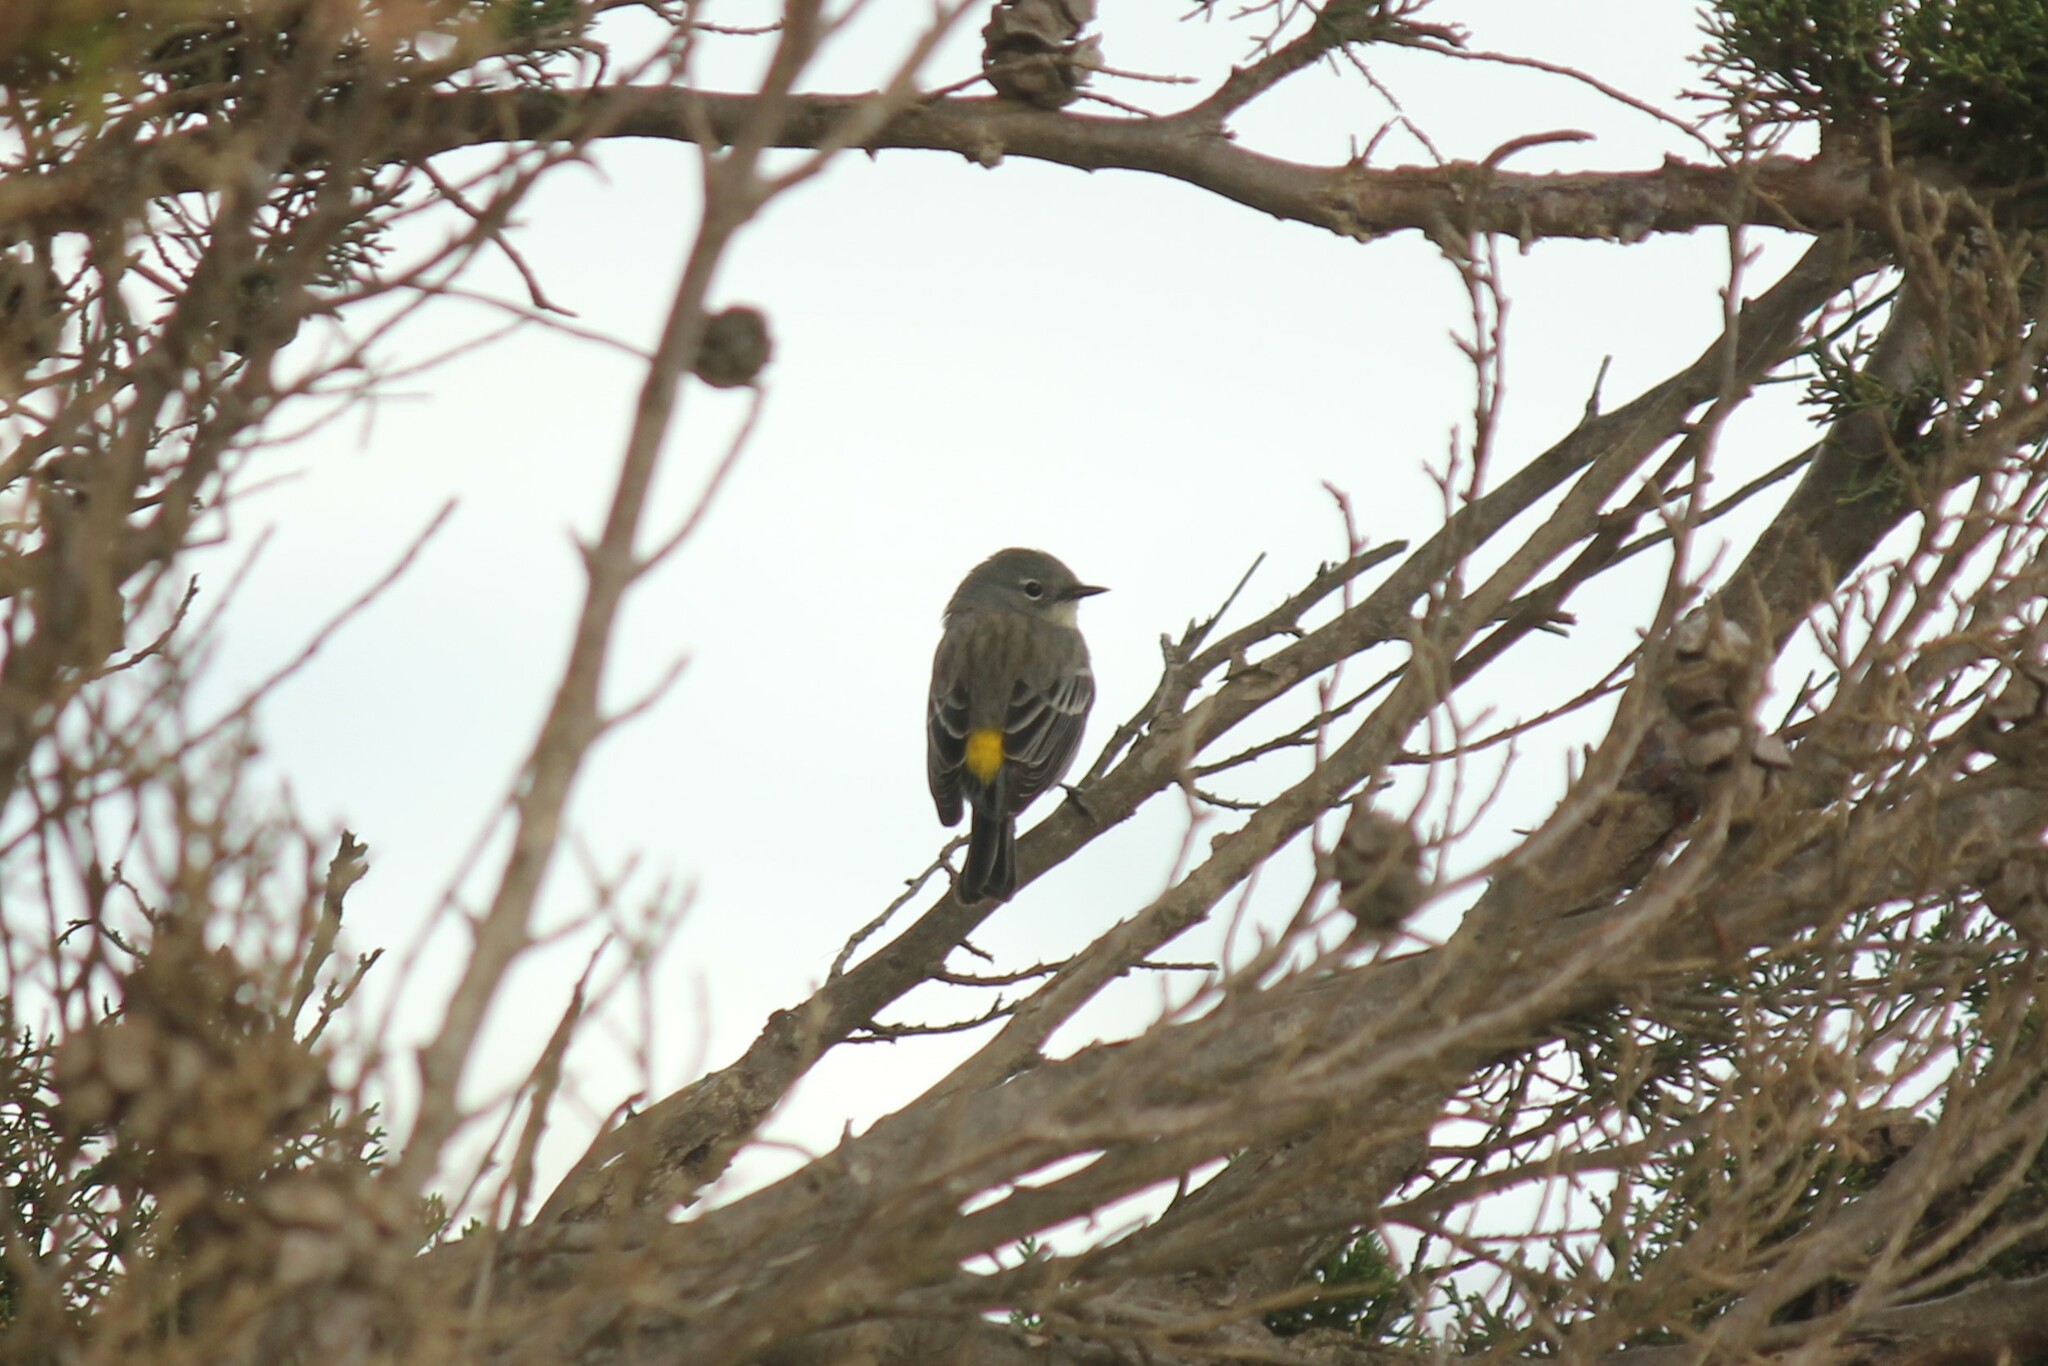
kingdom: Animalia
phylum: Chordata
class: Aves
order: Passeriformes
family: Parulidae
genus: Setophaga
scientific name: Setophaga coronata
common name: Myrtle warbler
